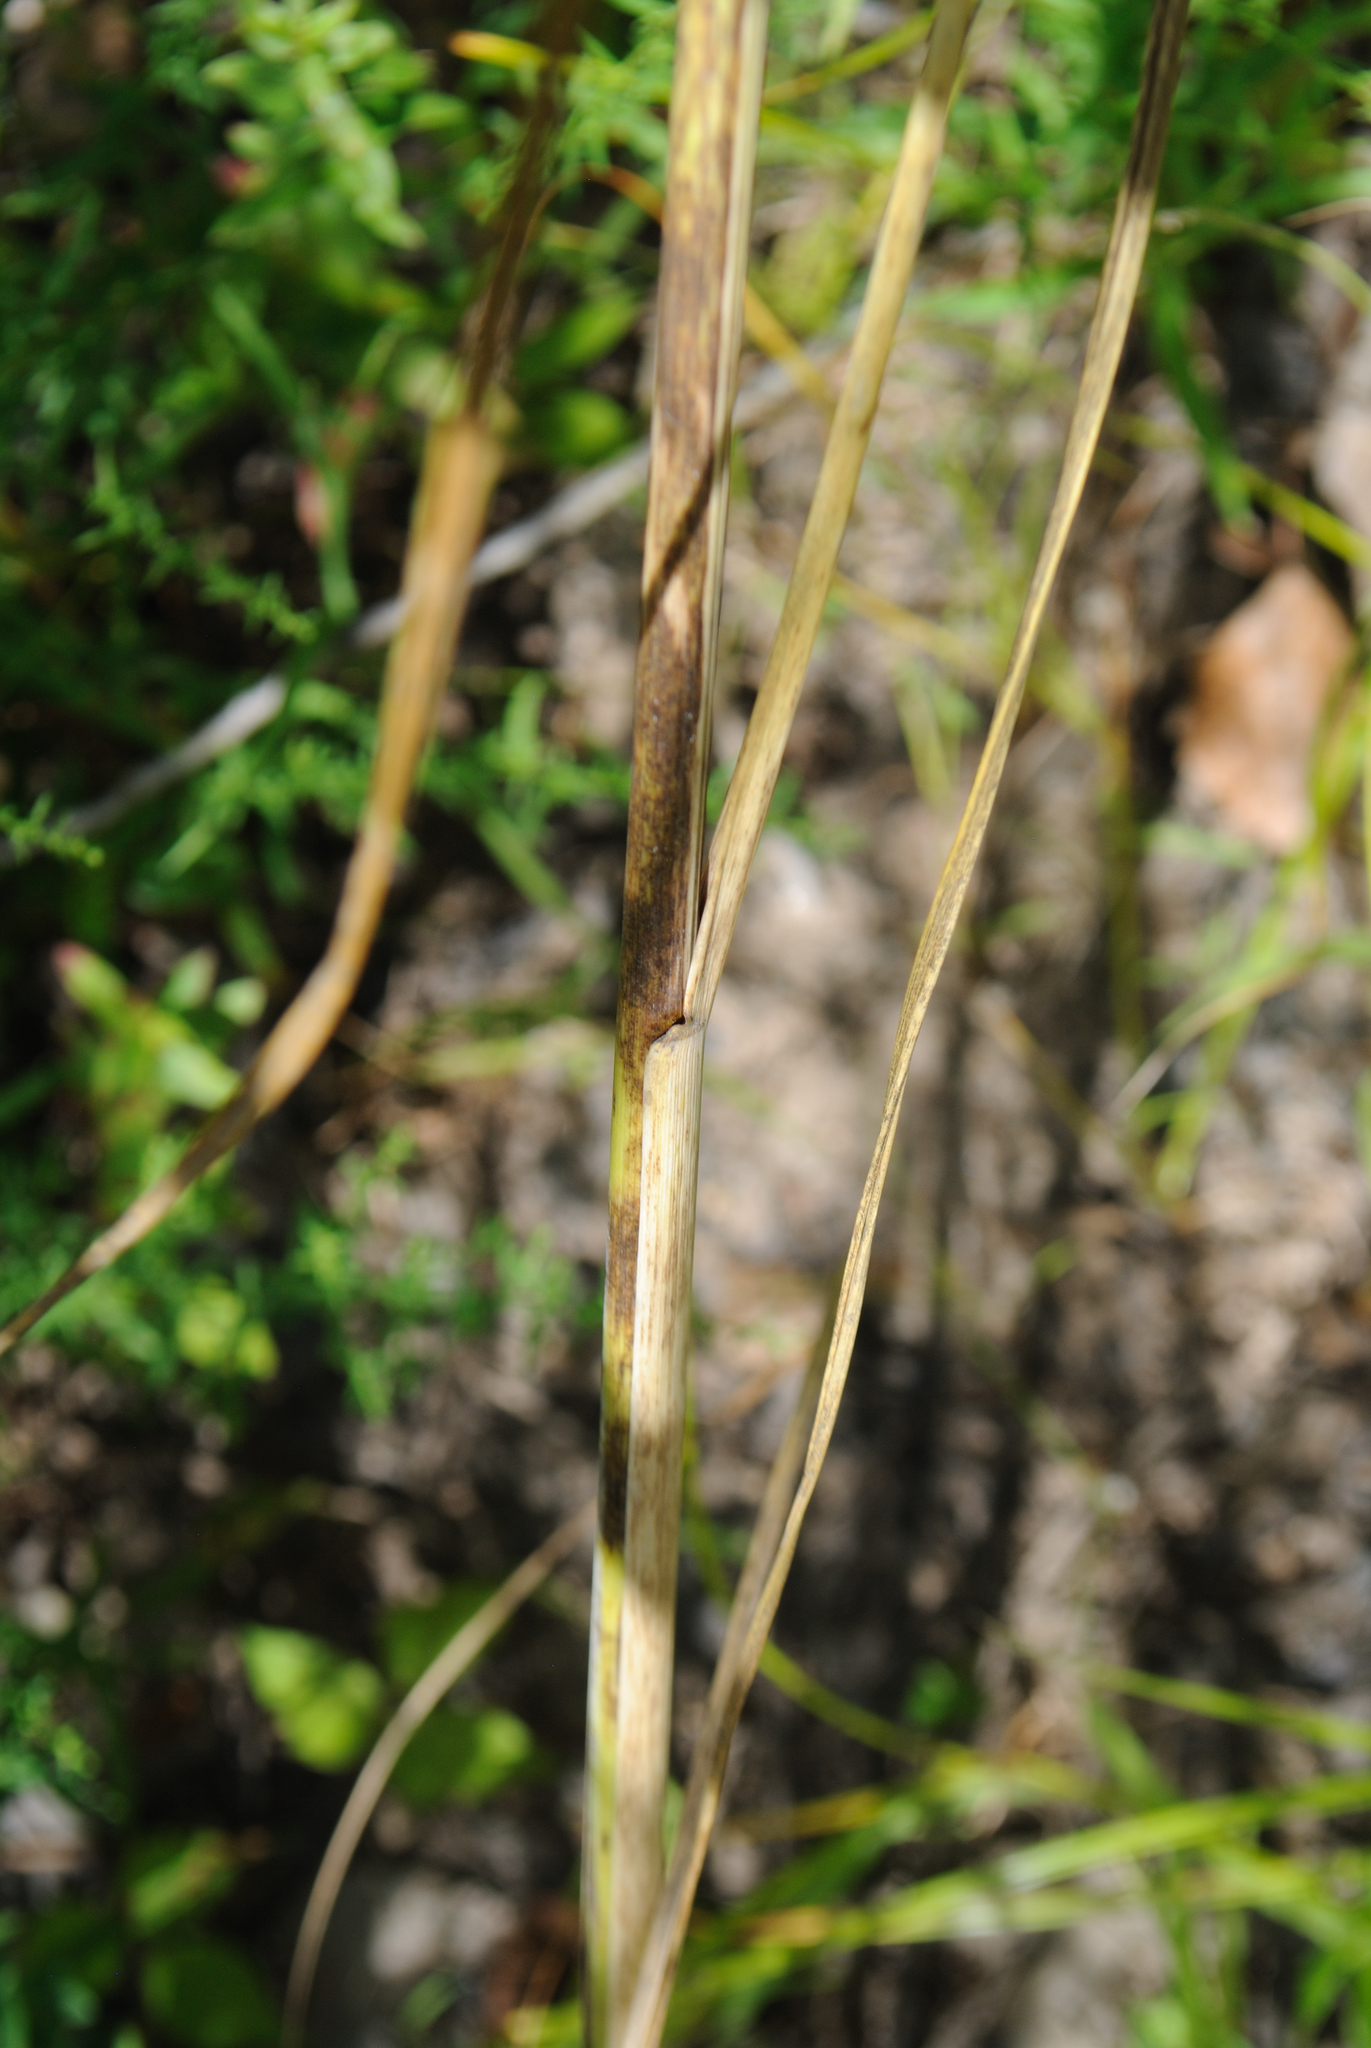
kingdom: Plantae
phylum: Tracheophyta
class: Liliopsida
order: Poales
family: Poaceae
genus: Sporobolus
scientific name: Sporobolus michauxianus
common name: Freshwater cordgrass
